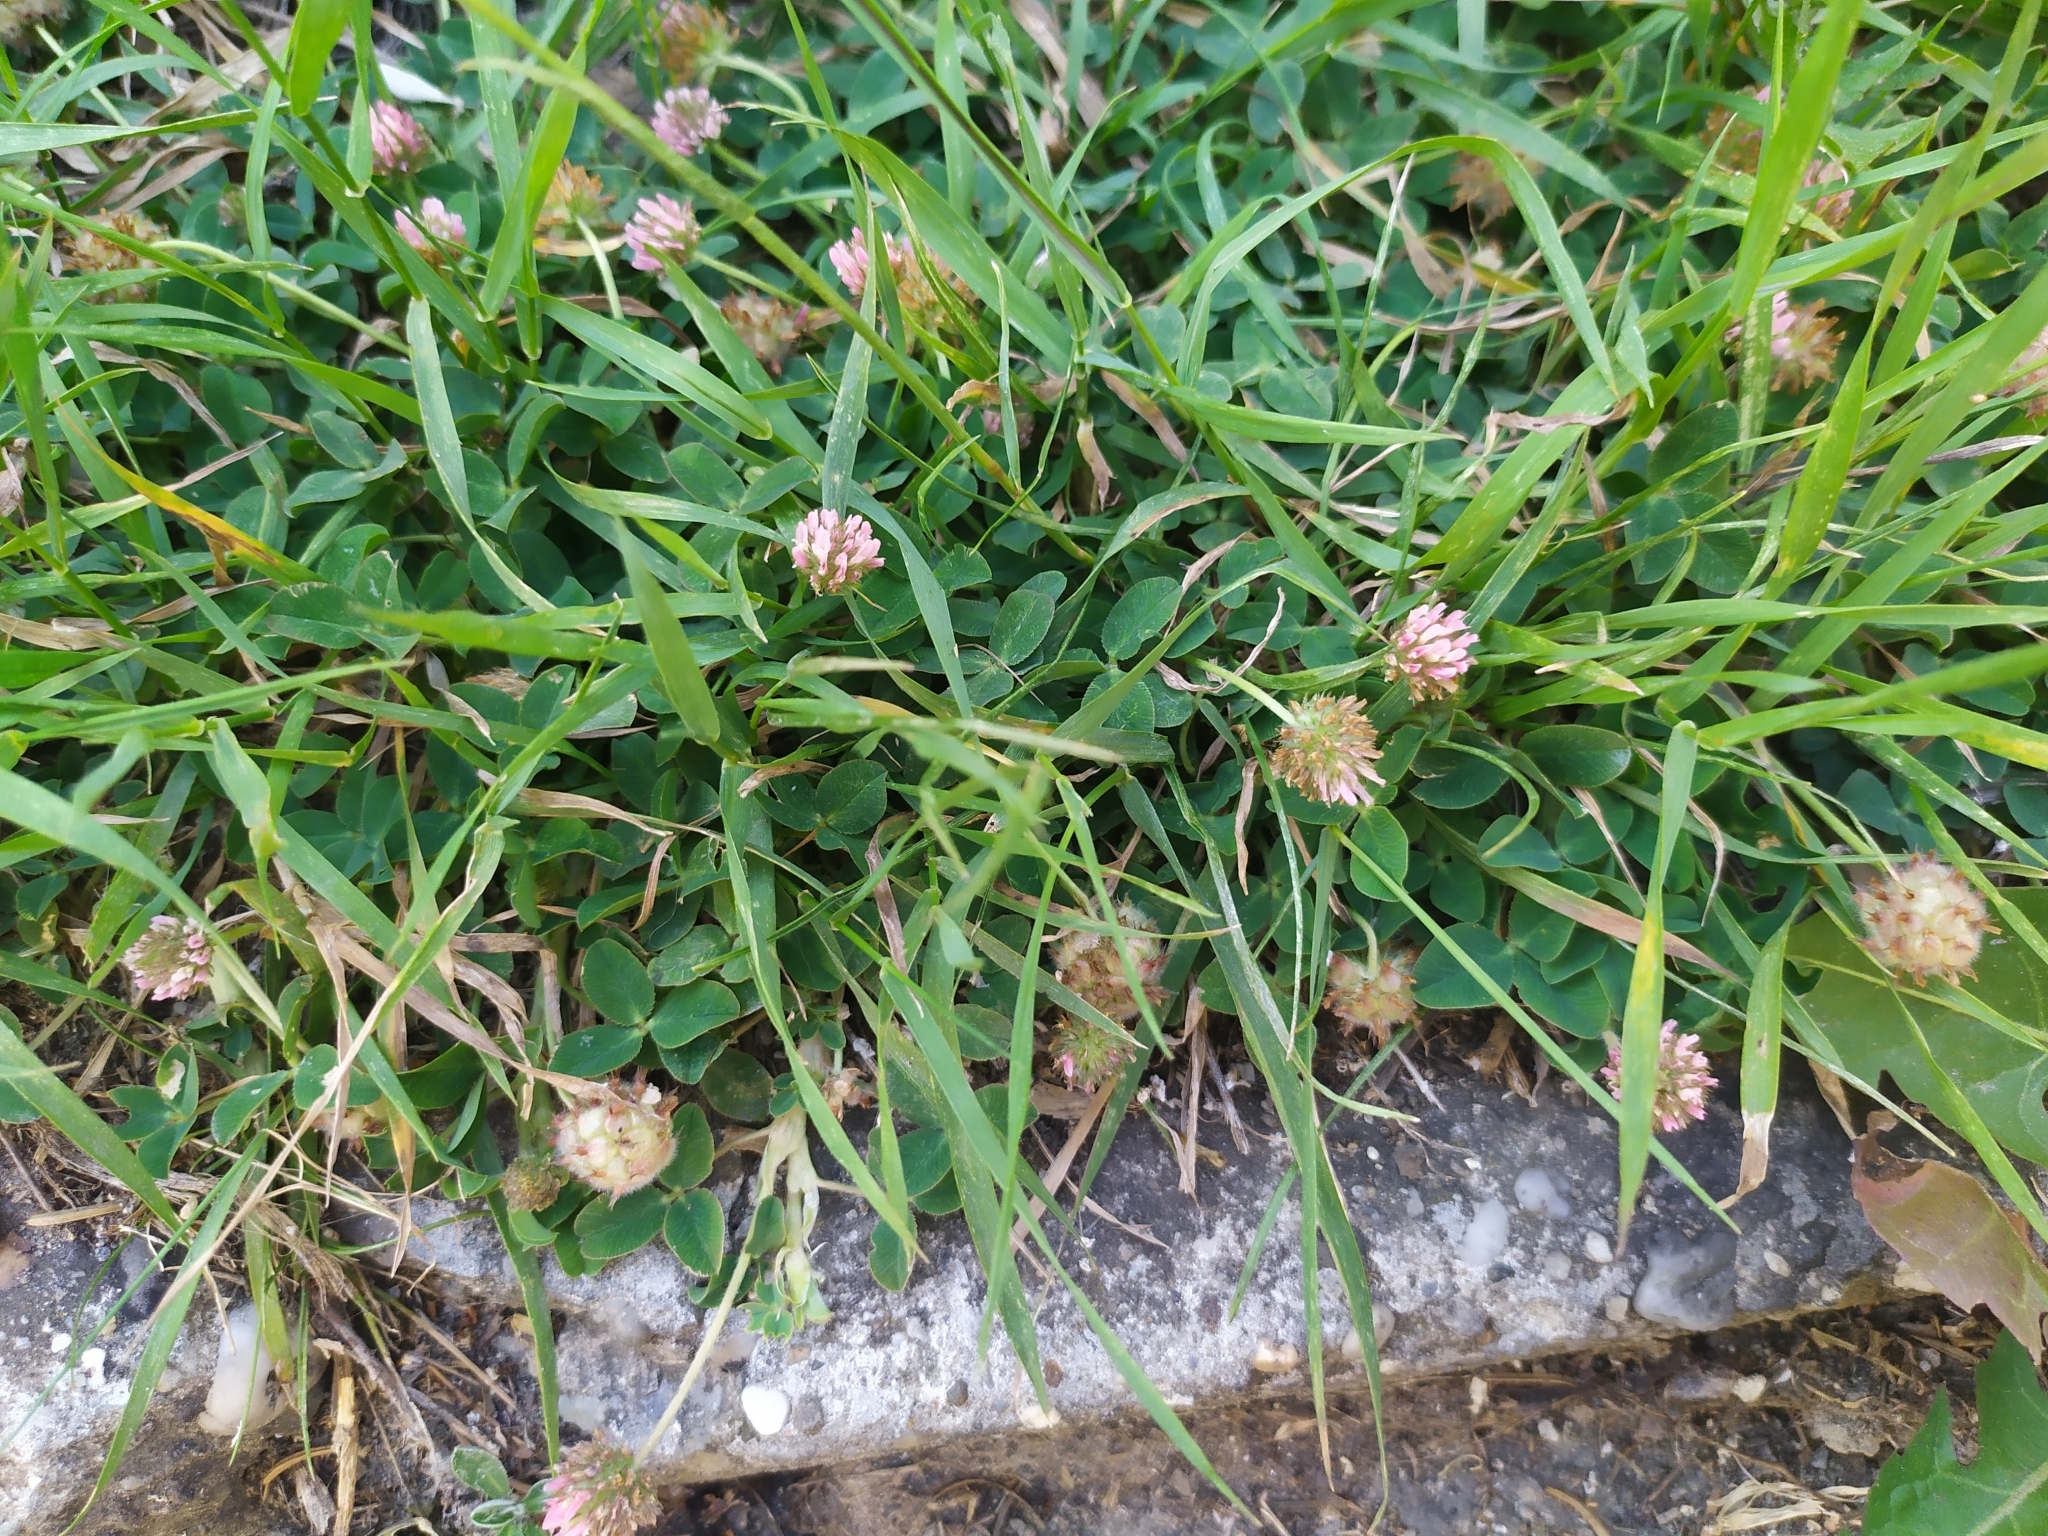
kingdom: Plantae
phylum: Tracheophyta
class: Magnoliopsida
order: Fabales
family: Fabaceae
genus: Trifolium
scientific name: Trifolium fragiferum
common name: Strawberry clover
